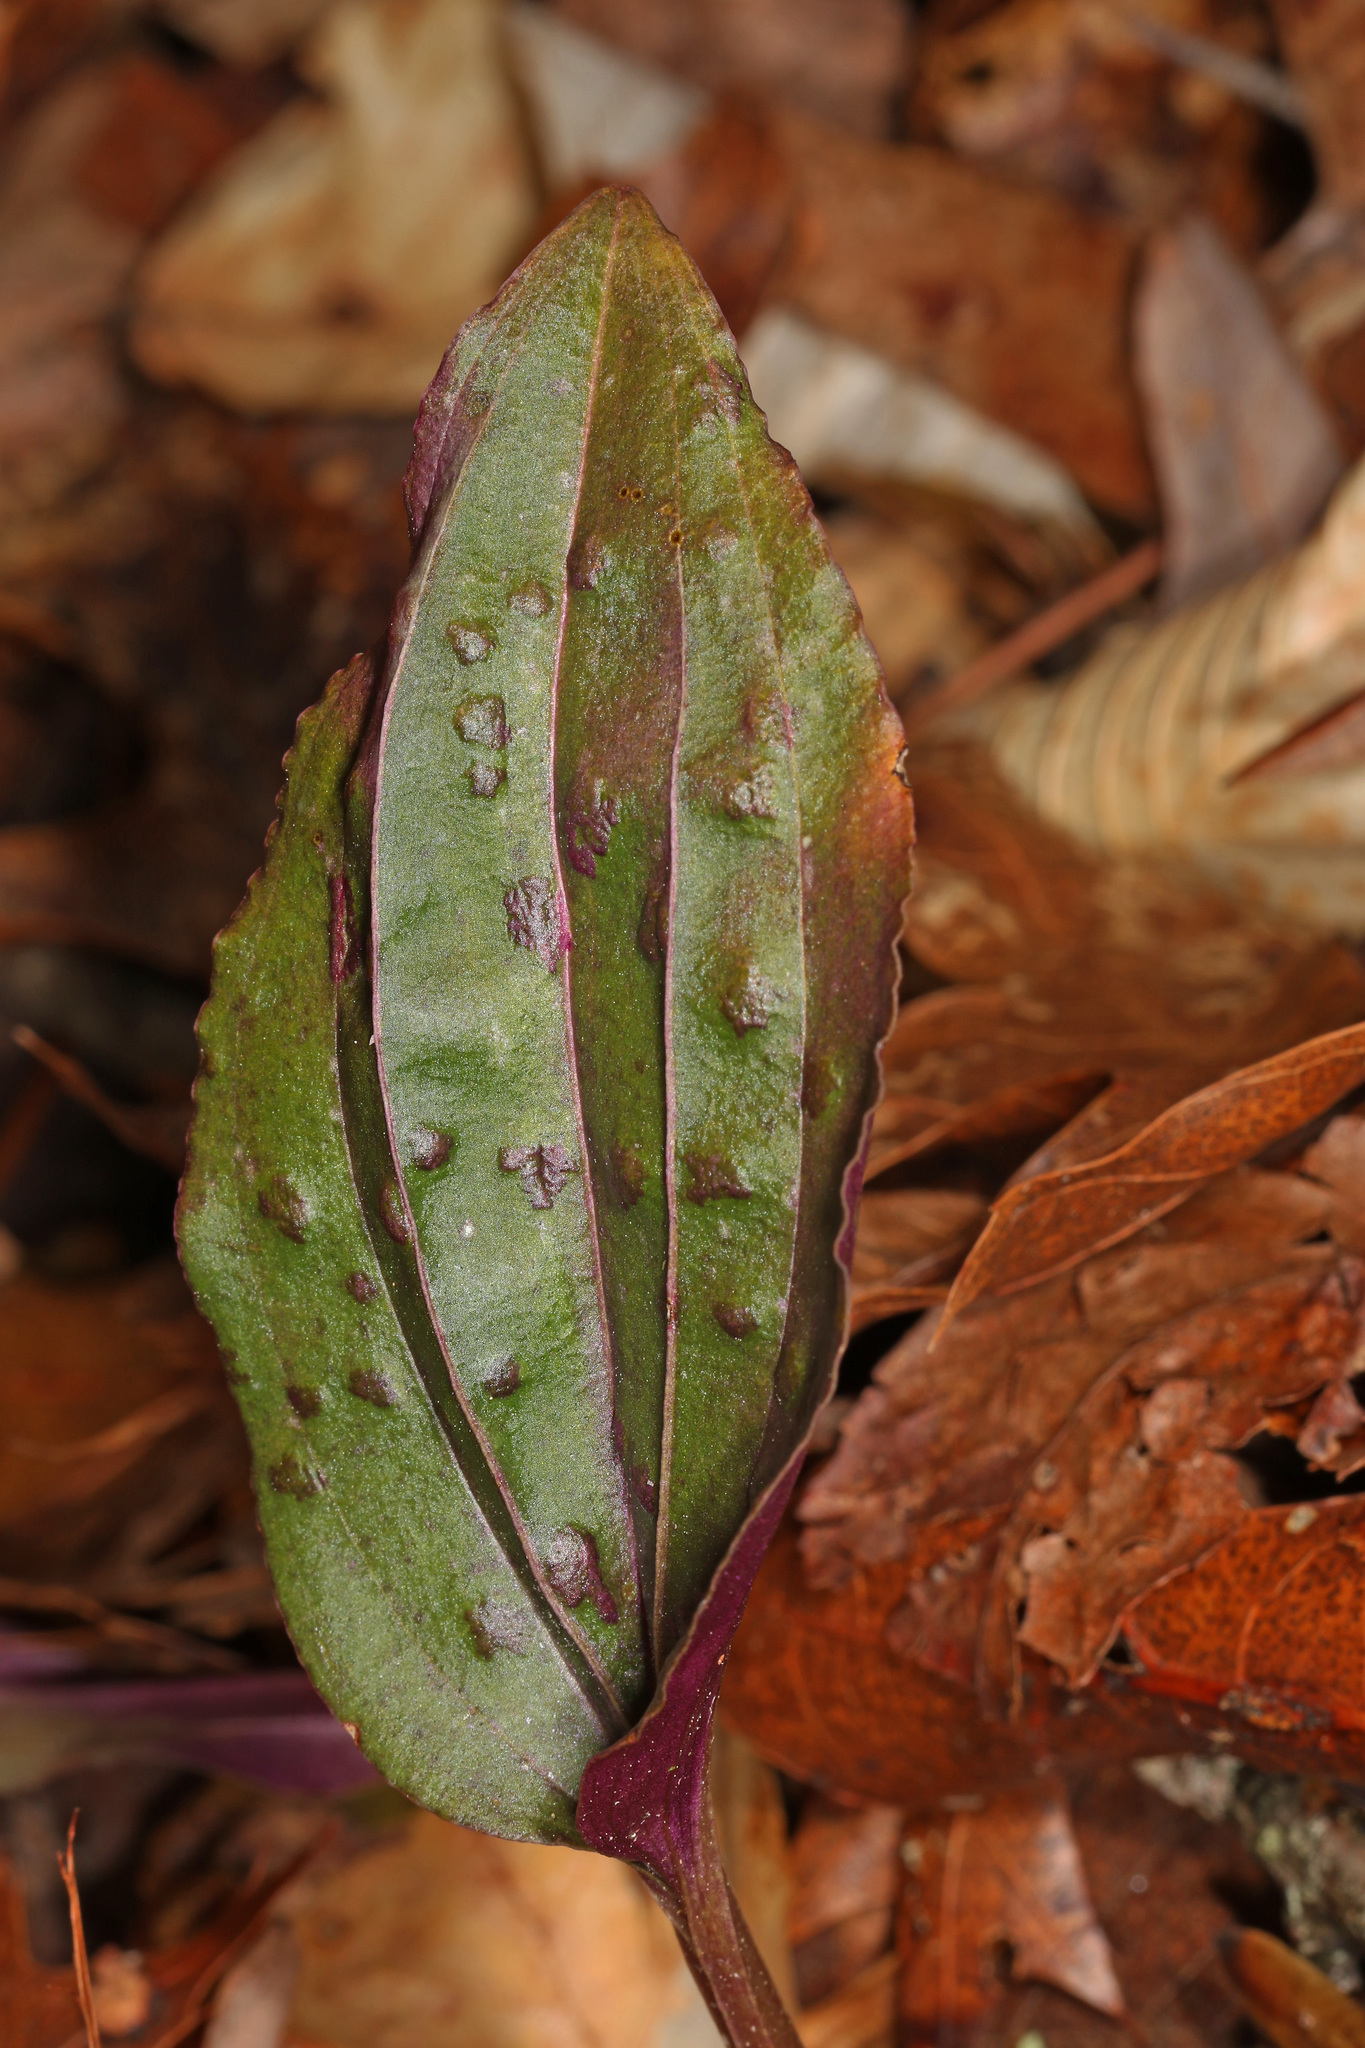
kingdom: Plantae
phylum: Tracheophyta
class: Liliopsida
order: Asparagales
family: Orchidaceae
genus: Tipularia
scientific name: Tipularia discolor
